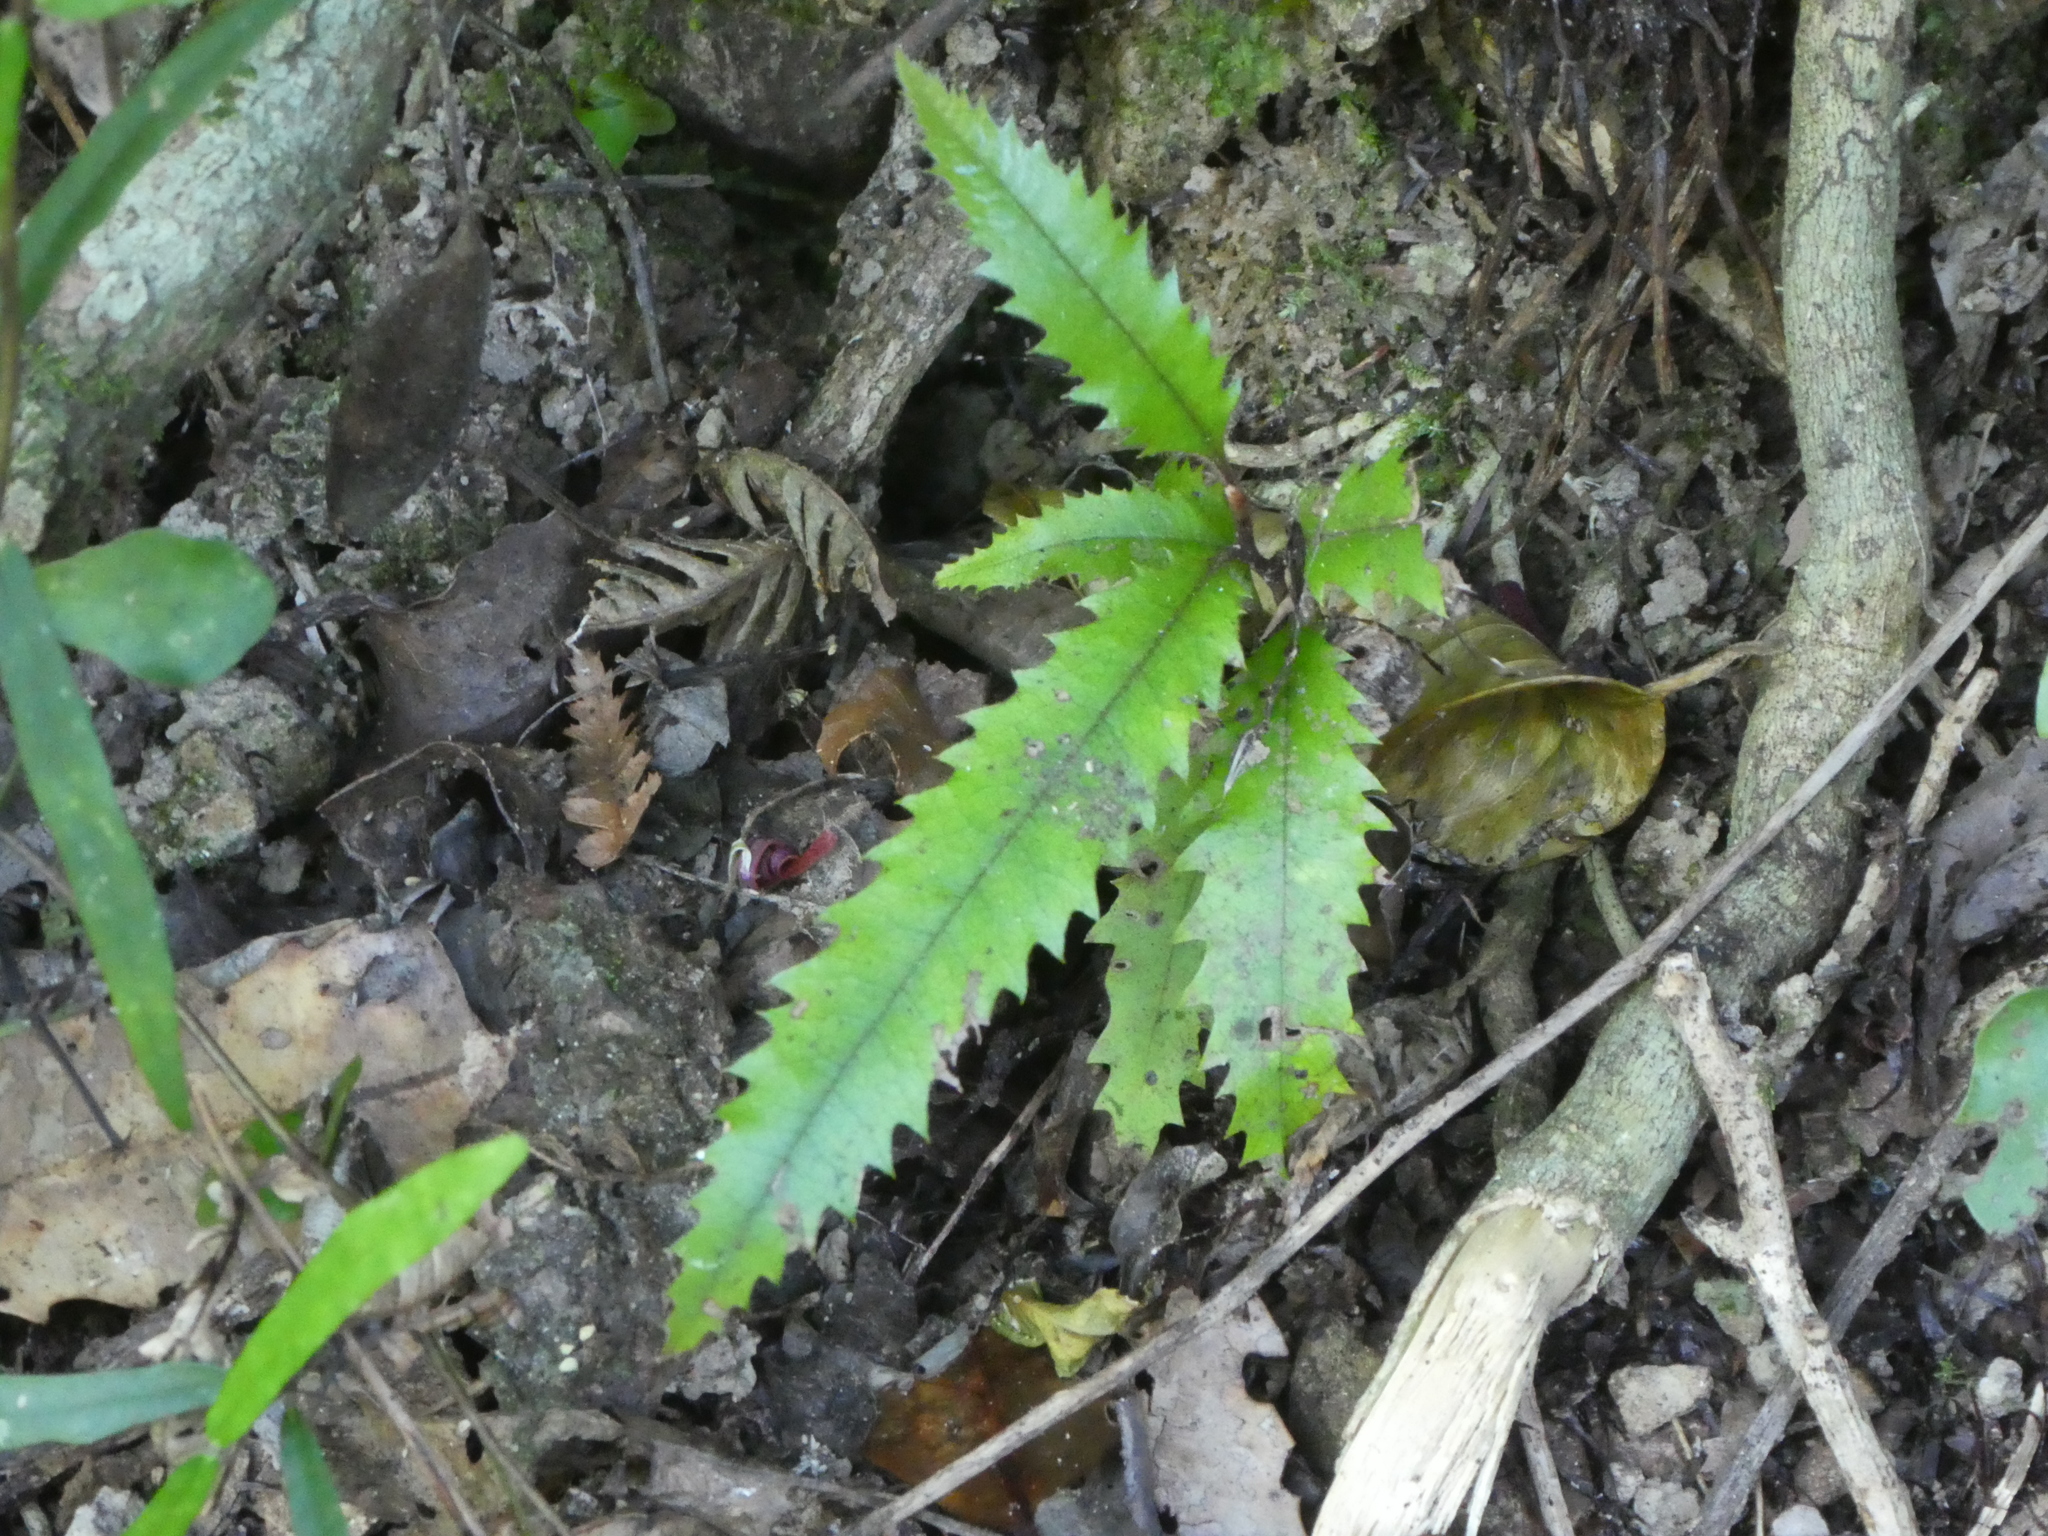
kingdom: Plantae
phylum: Tracheophyta
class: Magnoliopsida
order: Proteales
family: Proteaceae
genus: Knightia
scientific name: Knightia excelsa
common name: New zealand-honeysuckle
